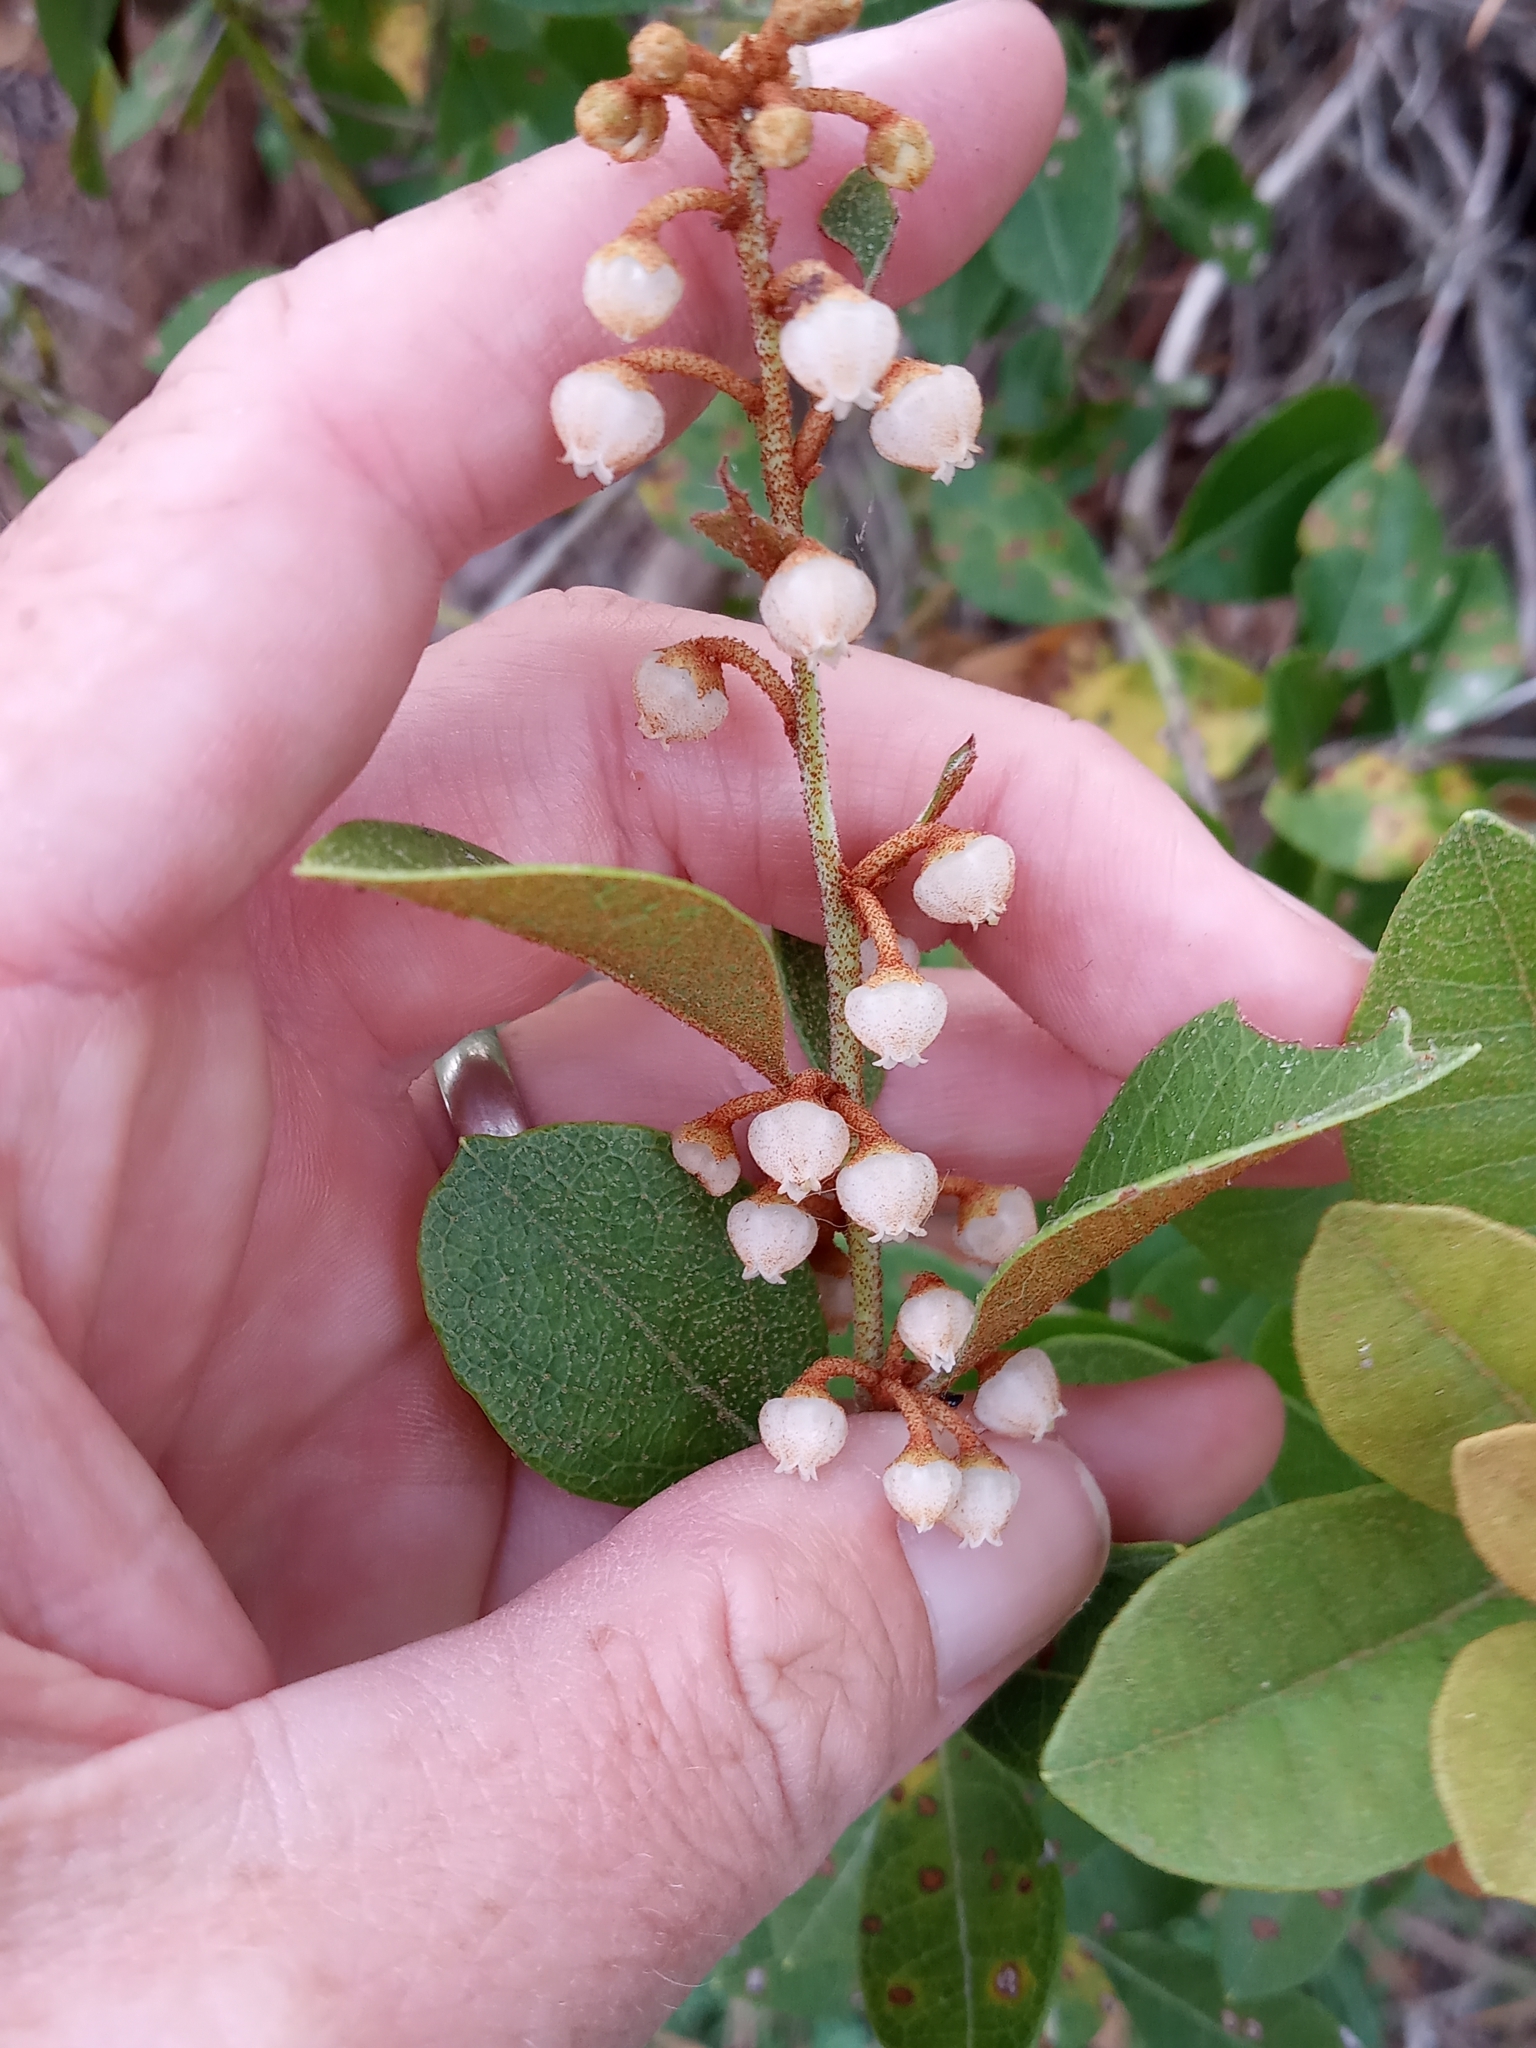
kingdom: Plantae
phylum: Tracheophyta
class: Magnoliopsida
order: Ericales
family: Ericaceae
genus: Lyonia
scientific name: Lyonia fruticosa
